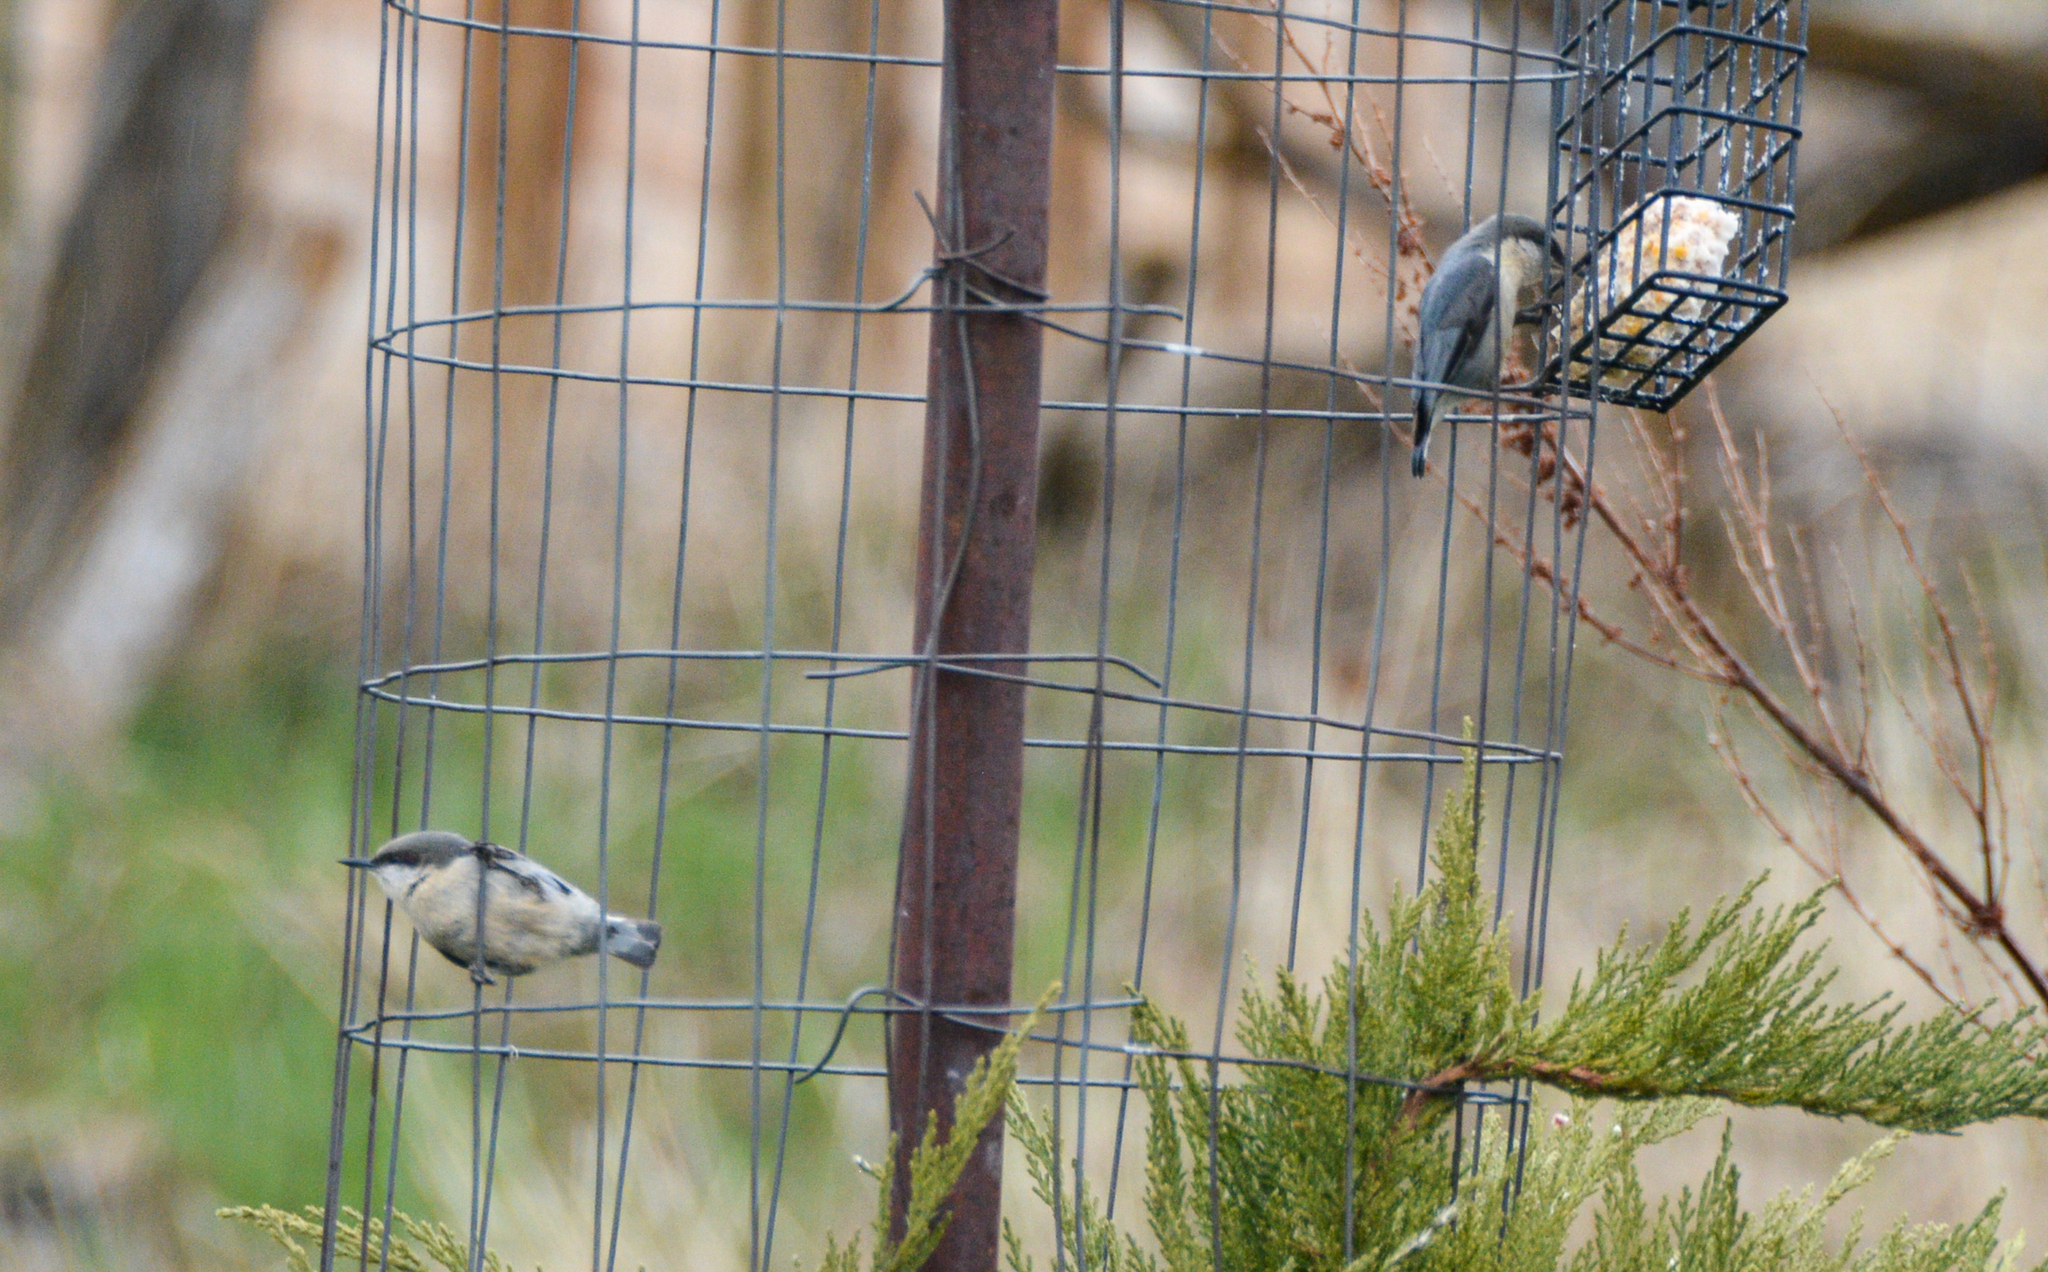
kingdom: Animalia
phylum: Chordata
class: Aves
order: Passeriformes
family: Sittidae
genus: Sitta
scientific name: Sitta pygmaea
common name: Pygmy nuthatch
